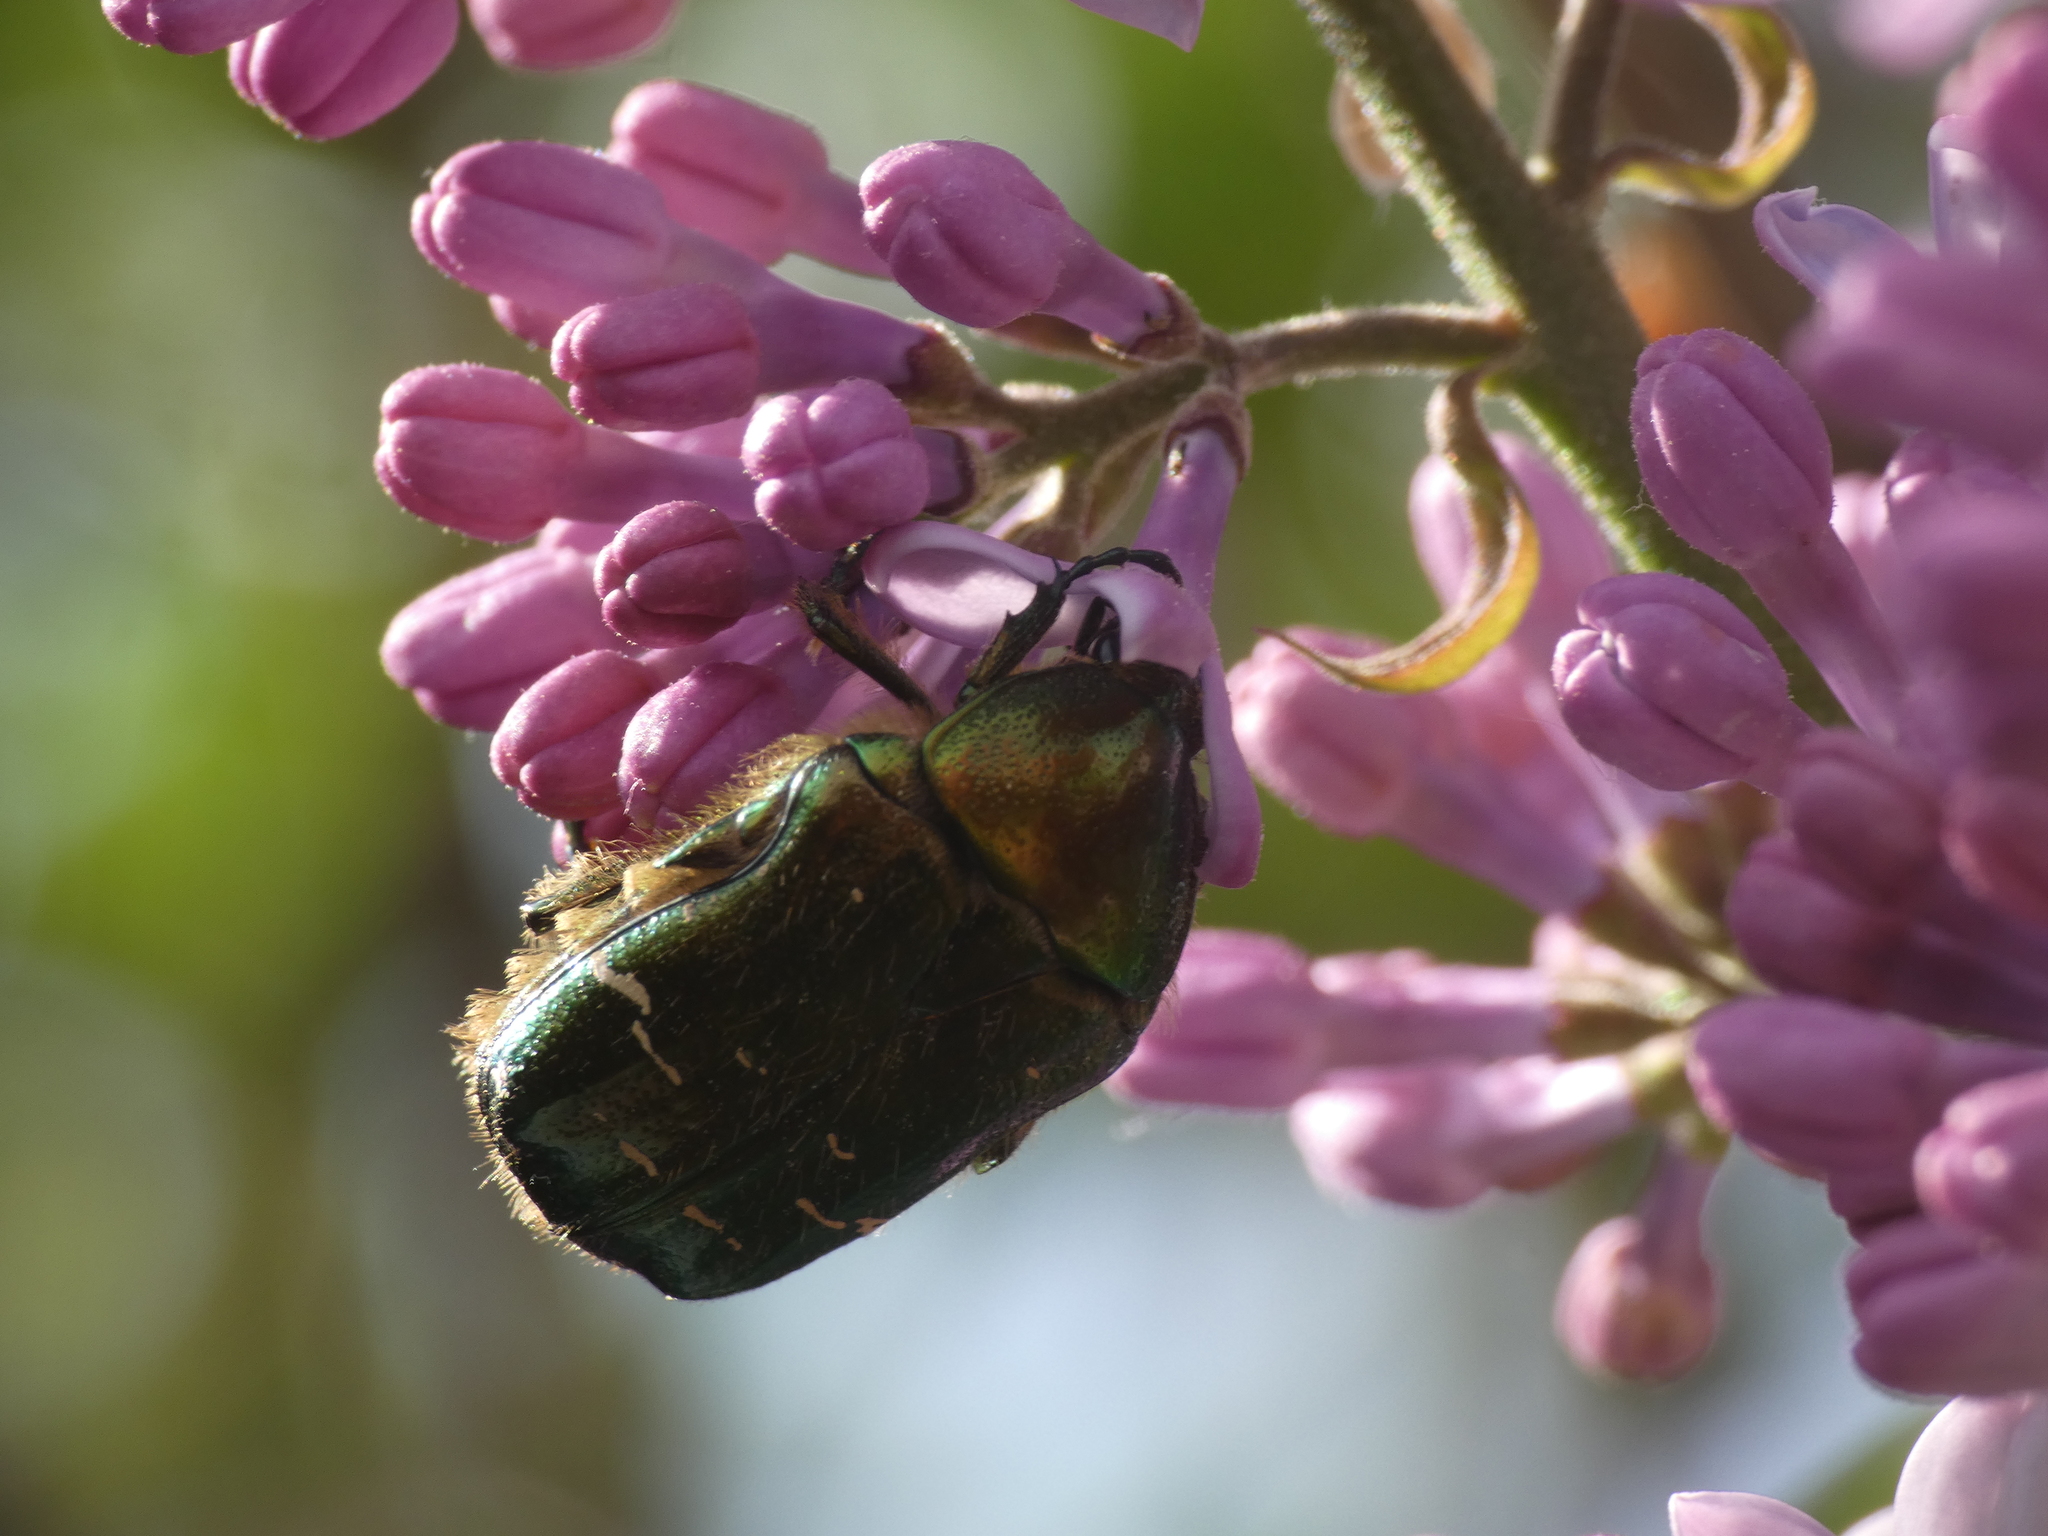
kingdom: Animalia
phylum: Arthropoda
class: Insecta
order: Coleoptera
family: Scarabaeidae
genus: Cetonia
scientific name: Cetonia aurata
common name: Rose chafer
